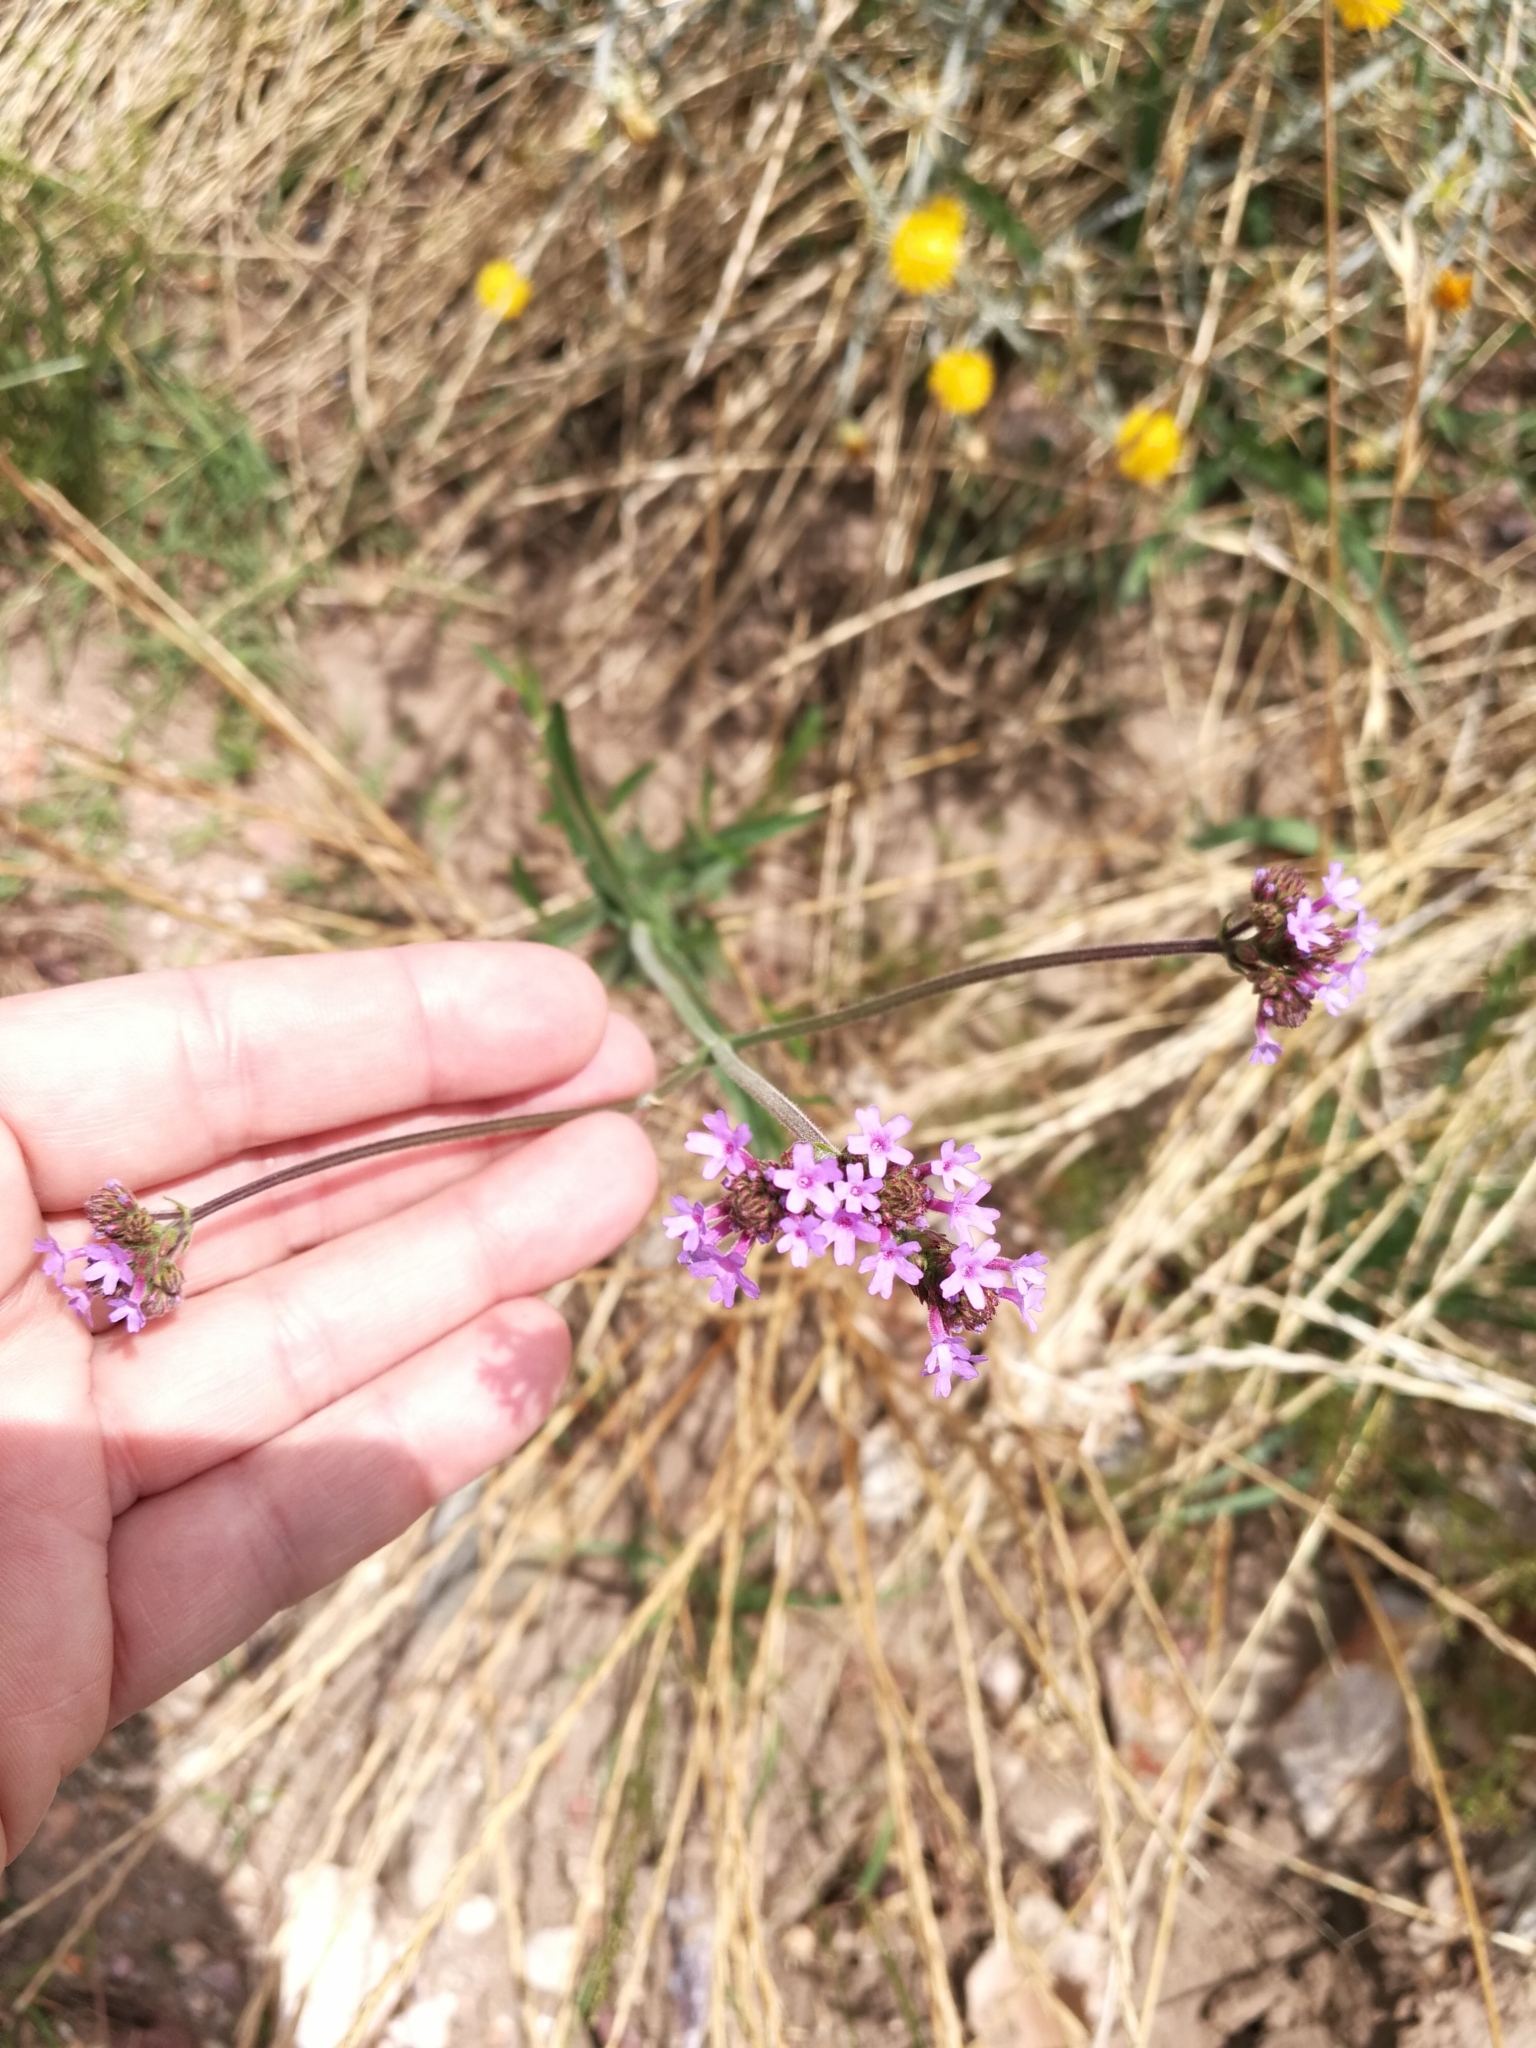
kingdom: Plantae
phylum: Tracheophyta
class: Magnoliopsida
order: Lamiales
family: Verbenaceae
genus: Verbena
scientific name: Verbena bonariensis
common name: Purpletop vervain
